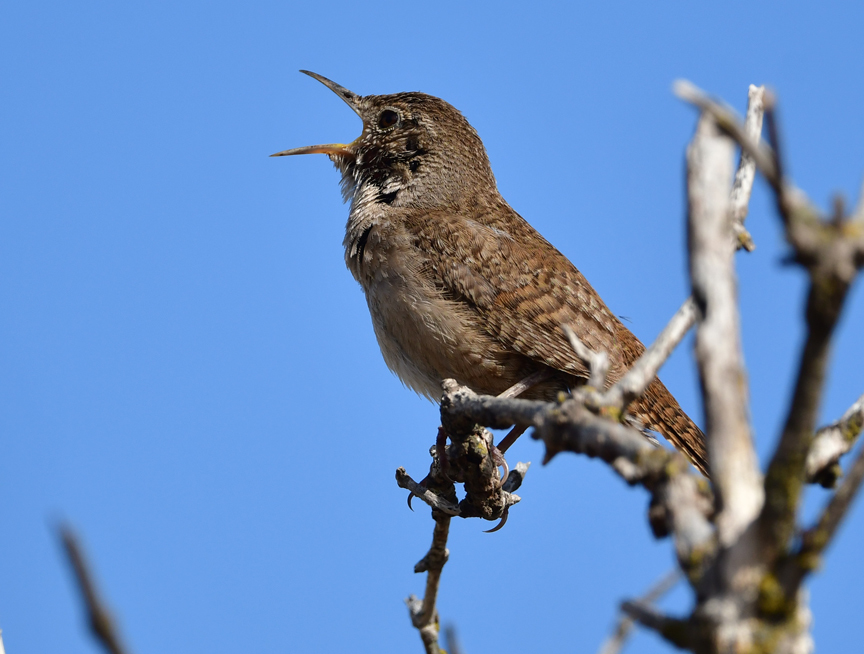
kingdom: Animalia
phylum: Chordata
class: Aves
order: Passeriformes
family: Troglodytidae
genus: Troglodytes
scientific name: Troglodytes aedon
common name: House wren
